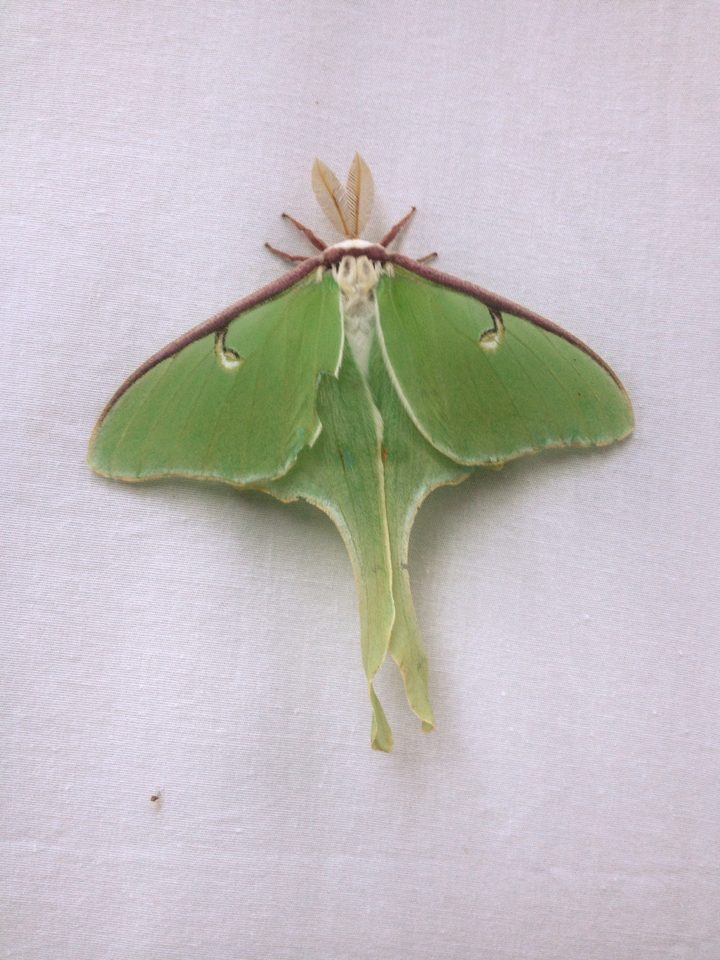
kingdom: Animalia
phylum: Arthropoda
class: Insecta
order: Lepidoptera
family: Saturniidae
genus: Actias
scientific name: Actias luna
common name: Luna moth
